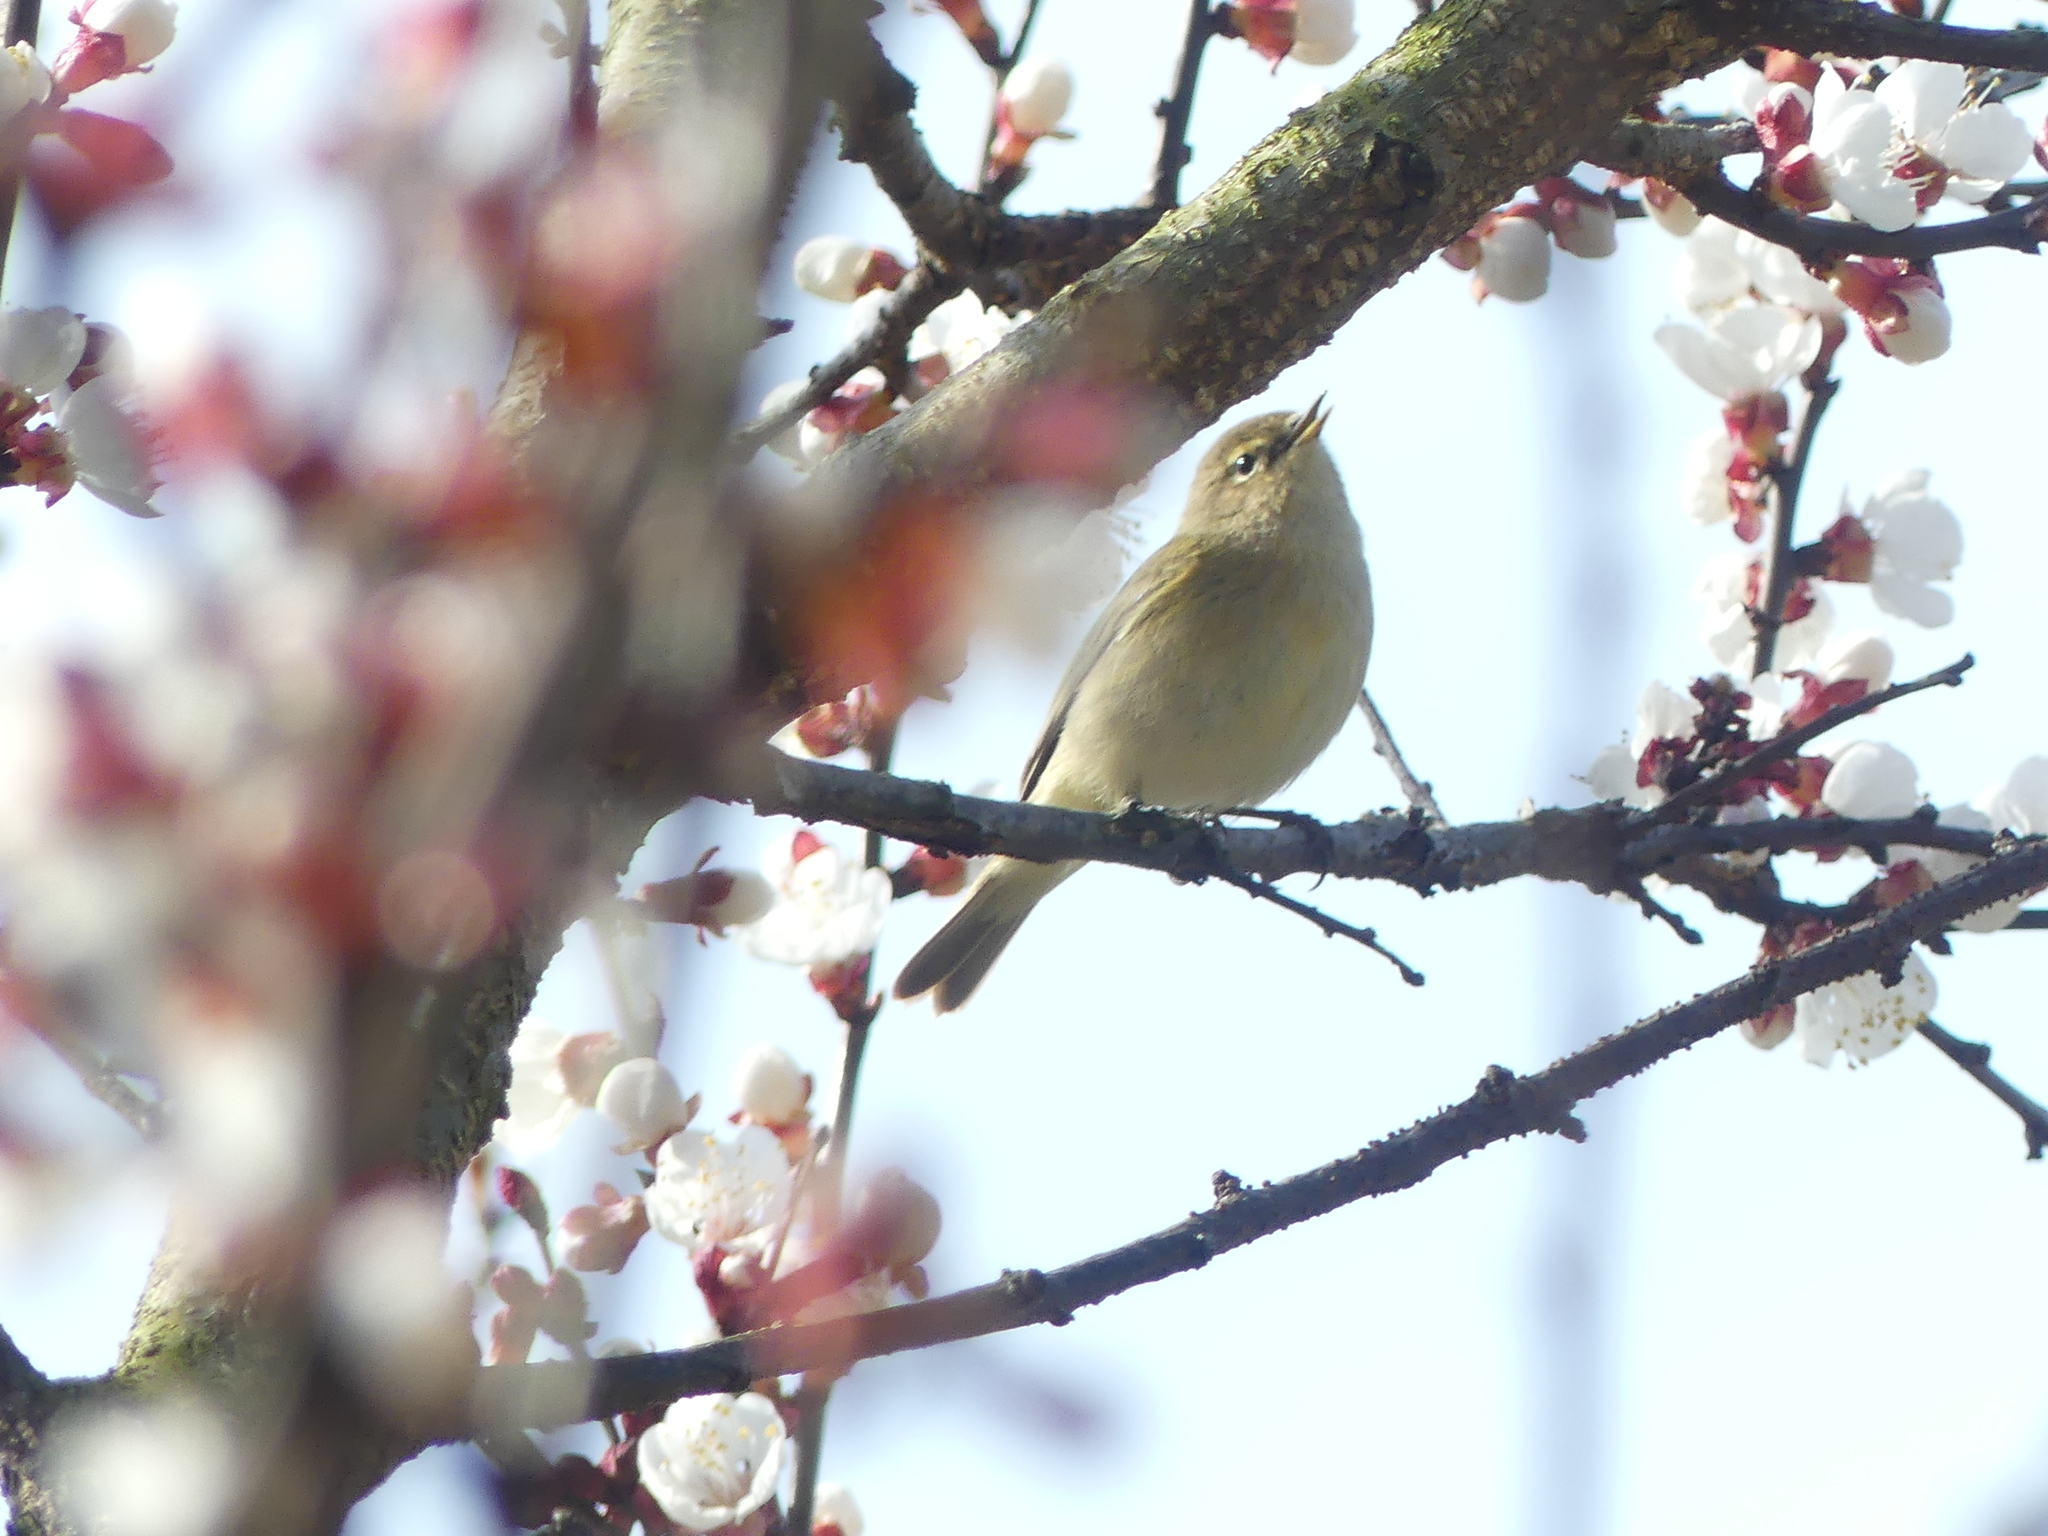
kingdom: Animalia
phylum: Chordata
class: Aves
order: Passeriformes
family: Phylloscopidae
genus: Phylloscopus
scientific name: Phylloscopus collybita
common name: Common chiffchaff
